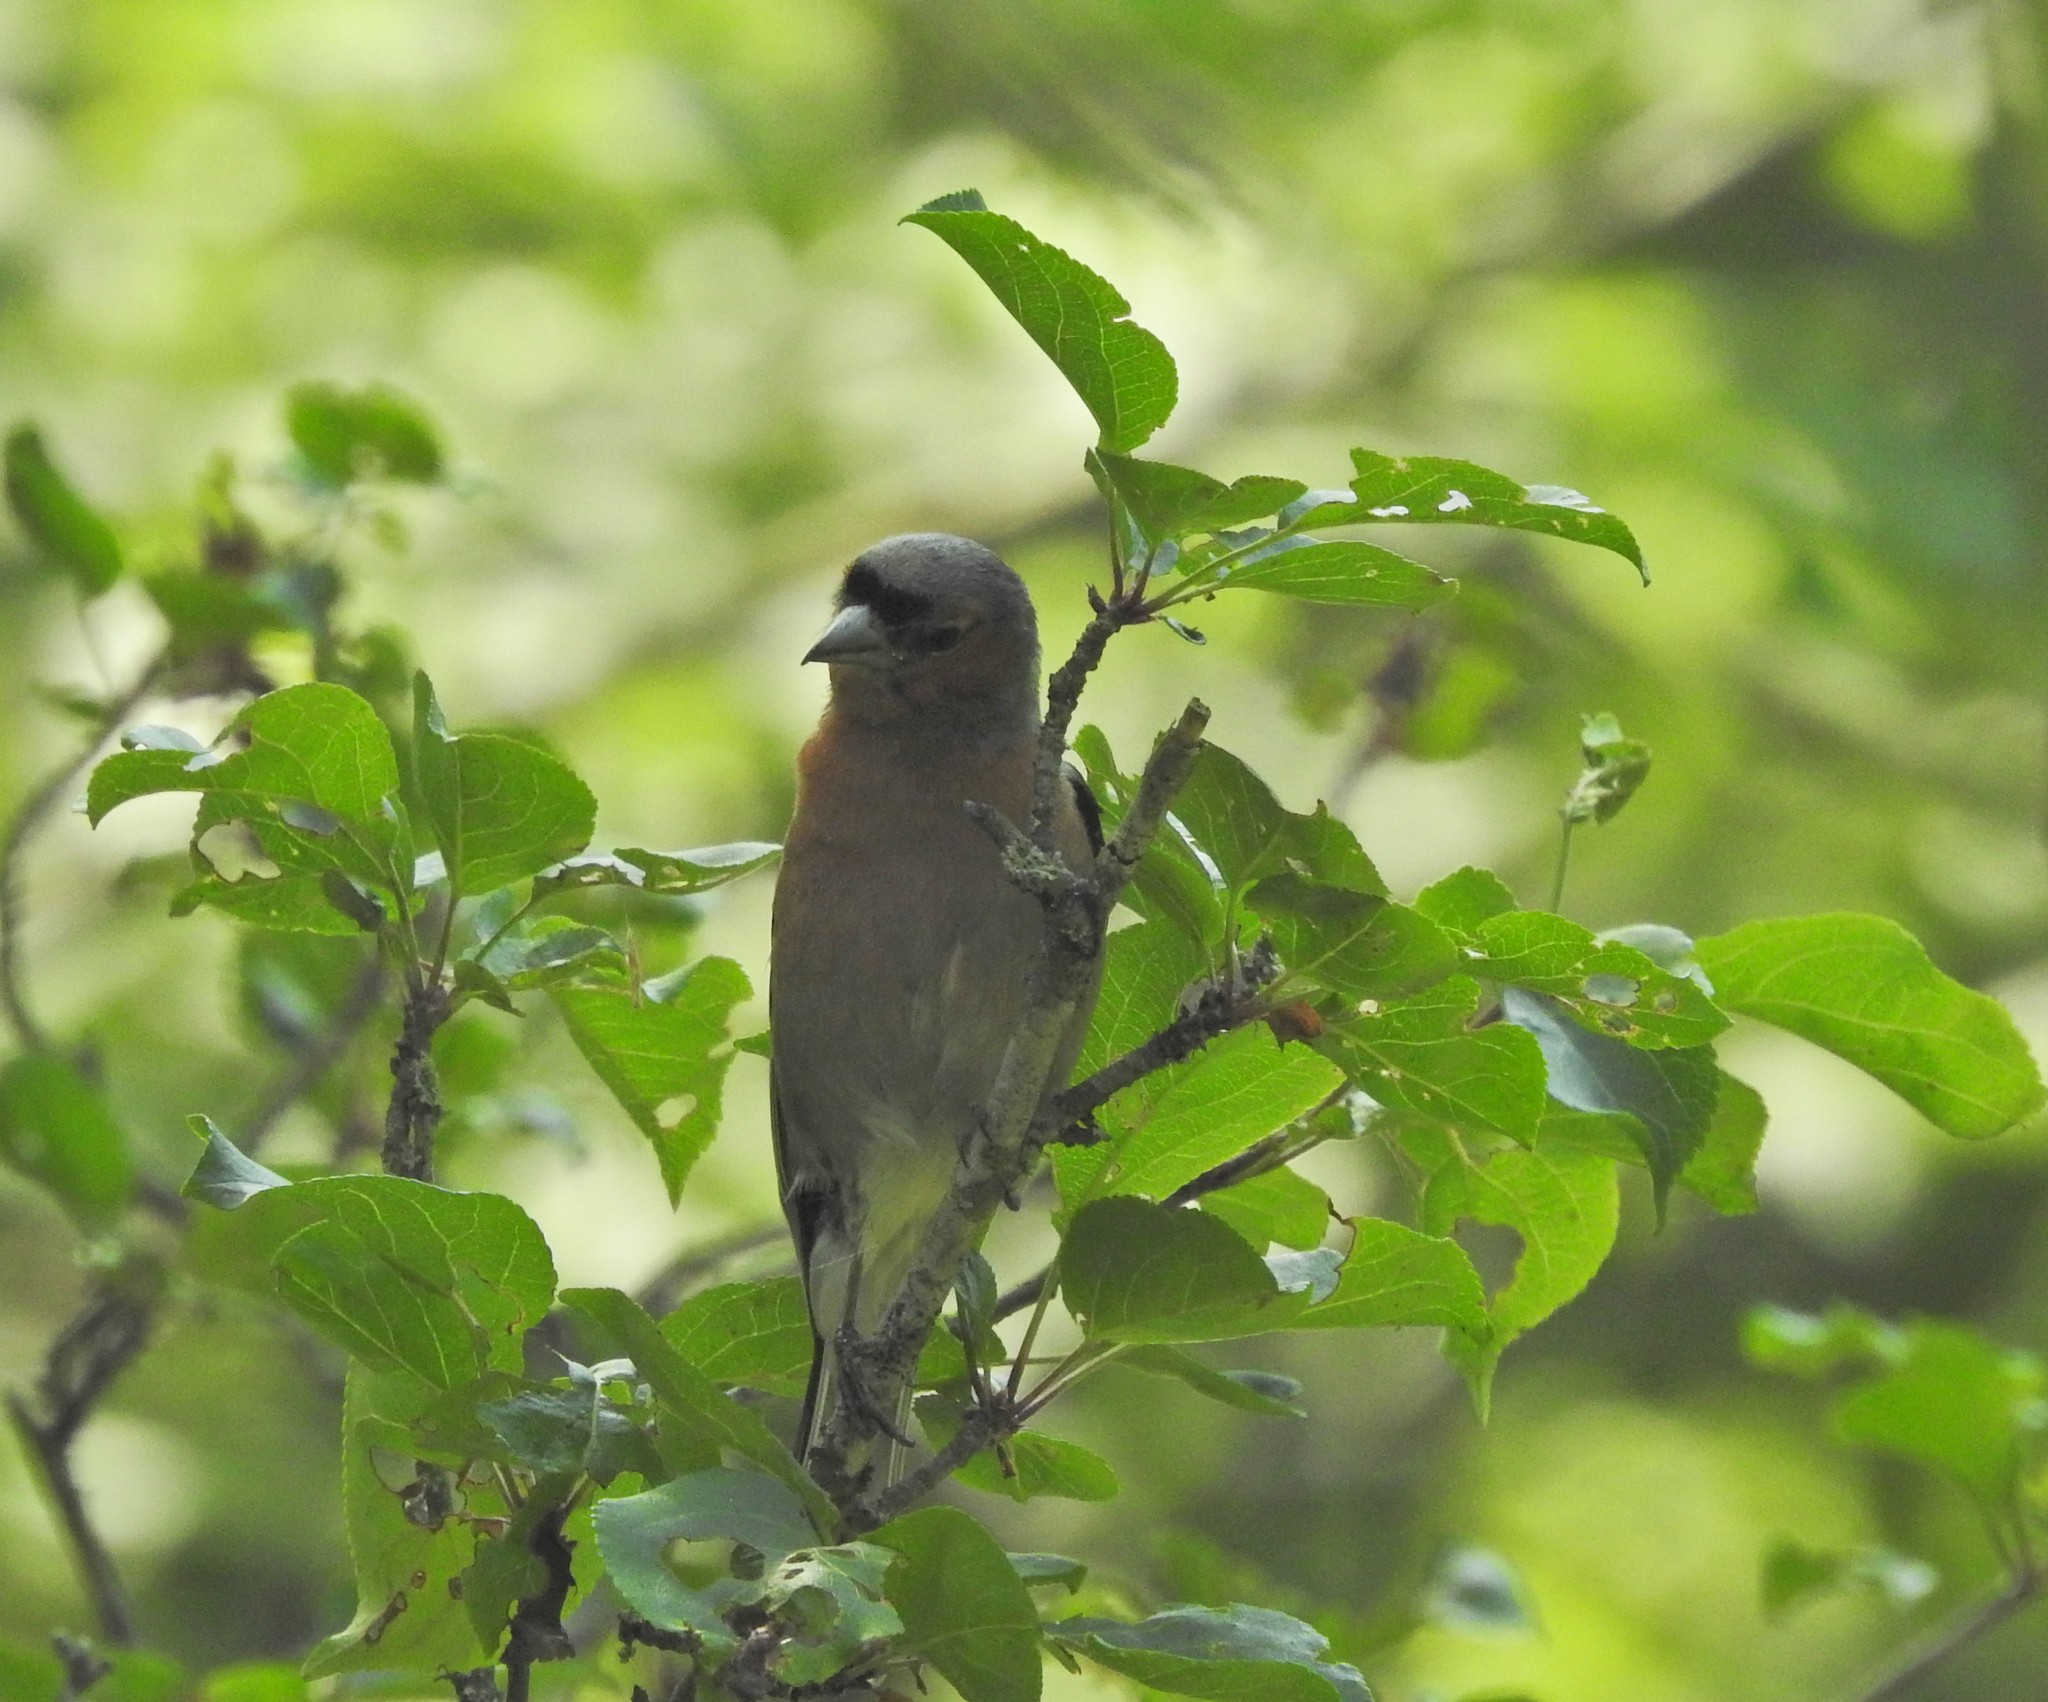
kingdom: Animalia
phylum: Chordata
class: Aves
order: Passeriformes
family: Fringillidae
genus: Fringilla
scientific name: Fringilla coelebs
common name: Common chaffinch
